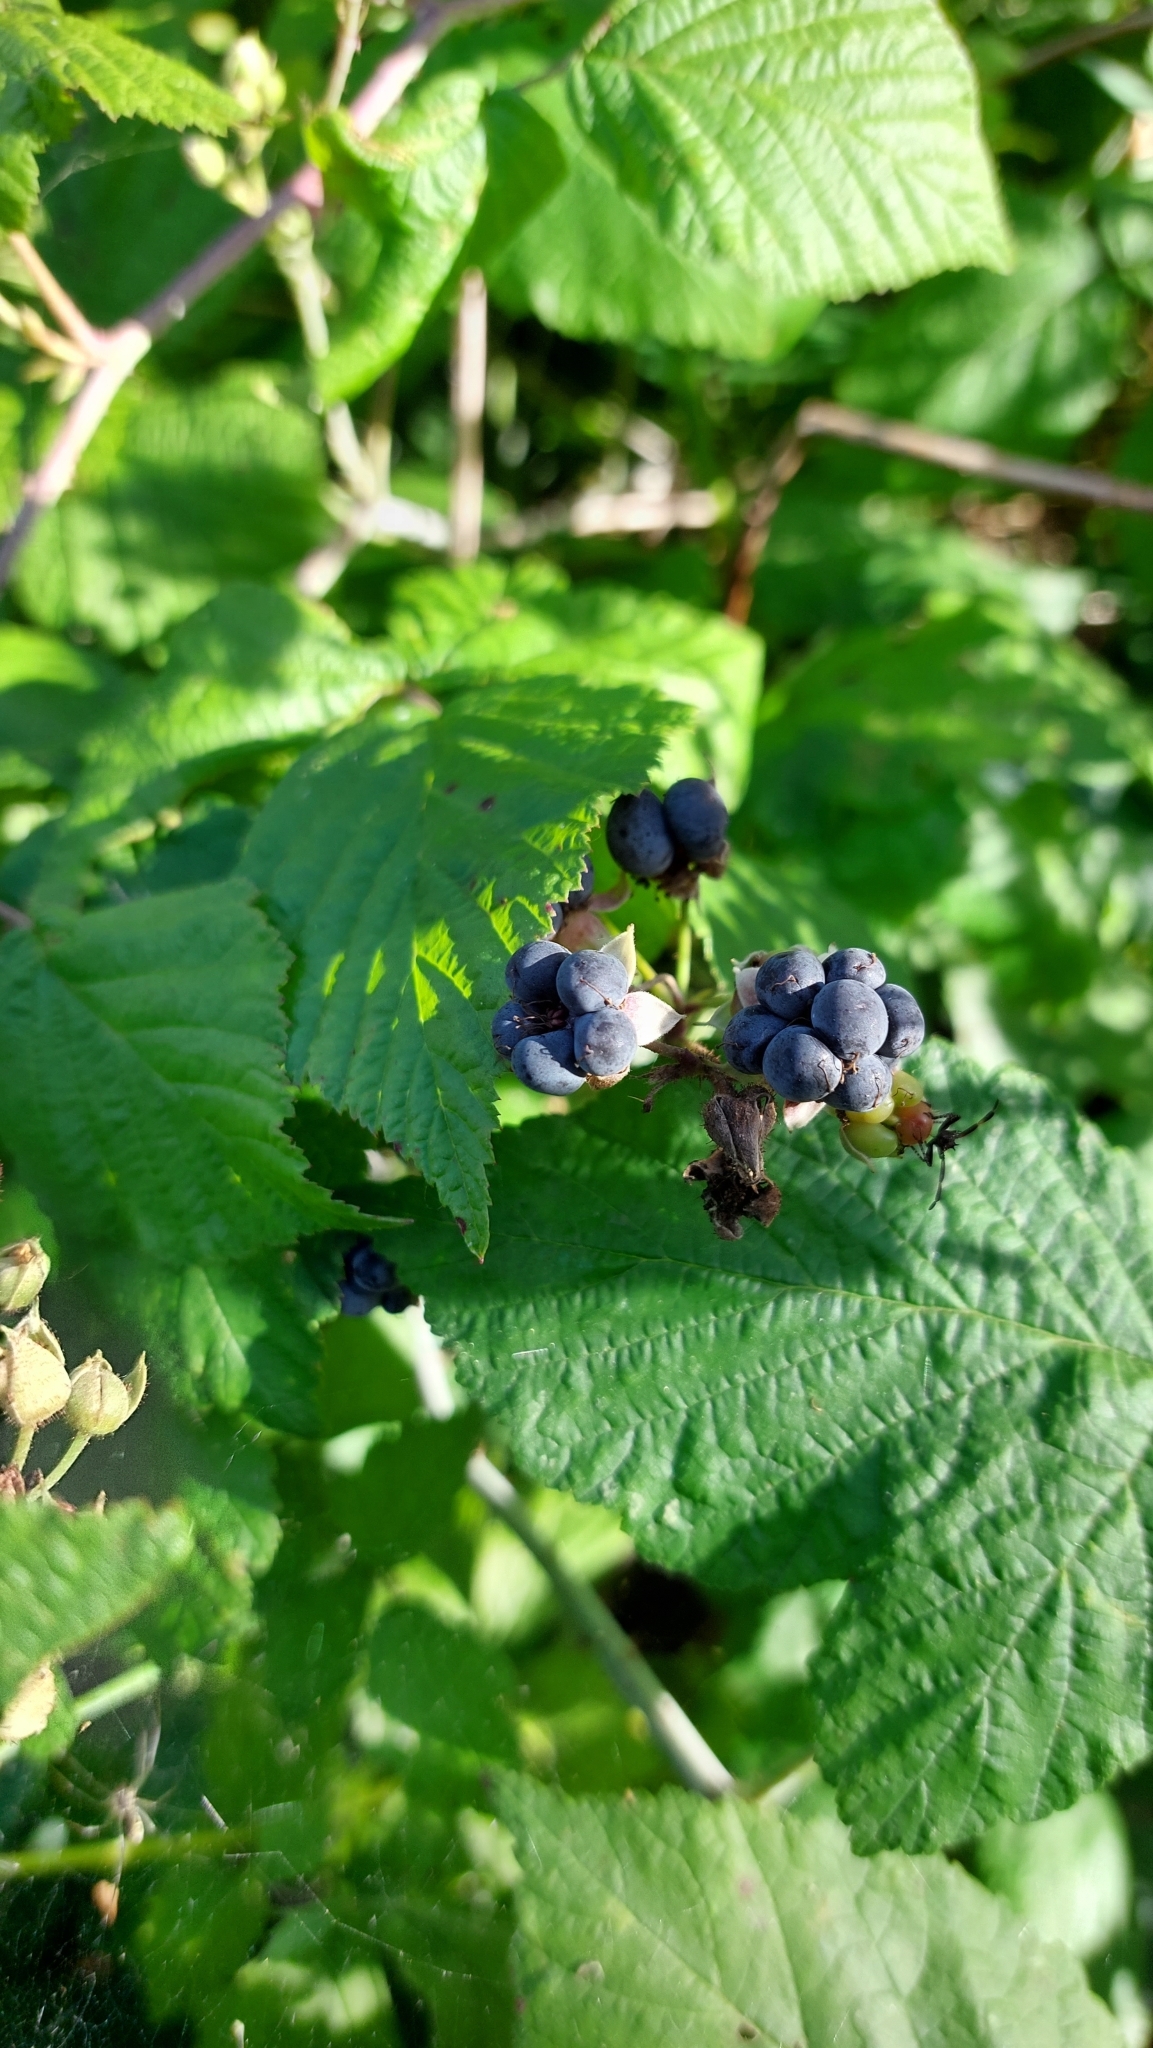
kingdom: Plantae
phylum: Tracheophyta
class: Magnoliopsida
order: Rosales
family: Rosaceae
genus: Rubus
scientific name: Rubus caesius
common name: Dewberry
